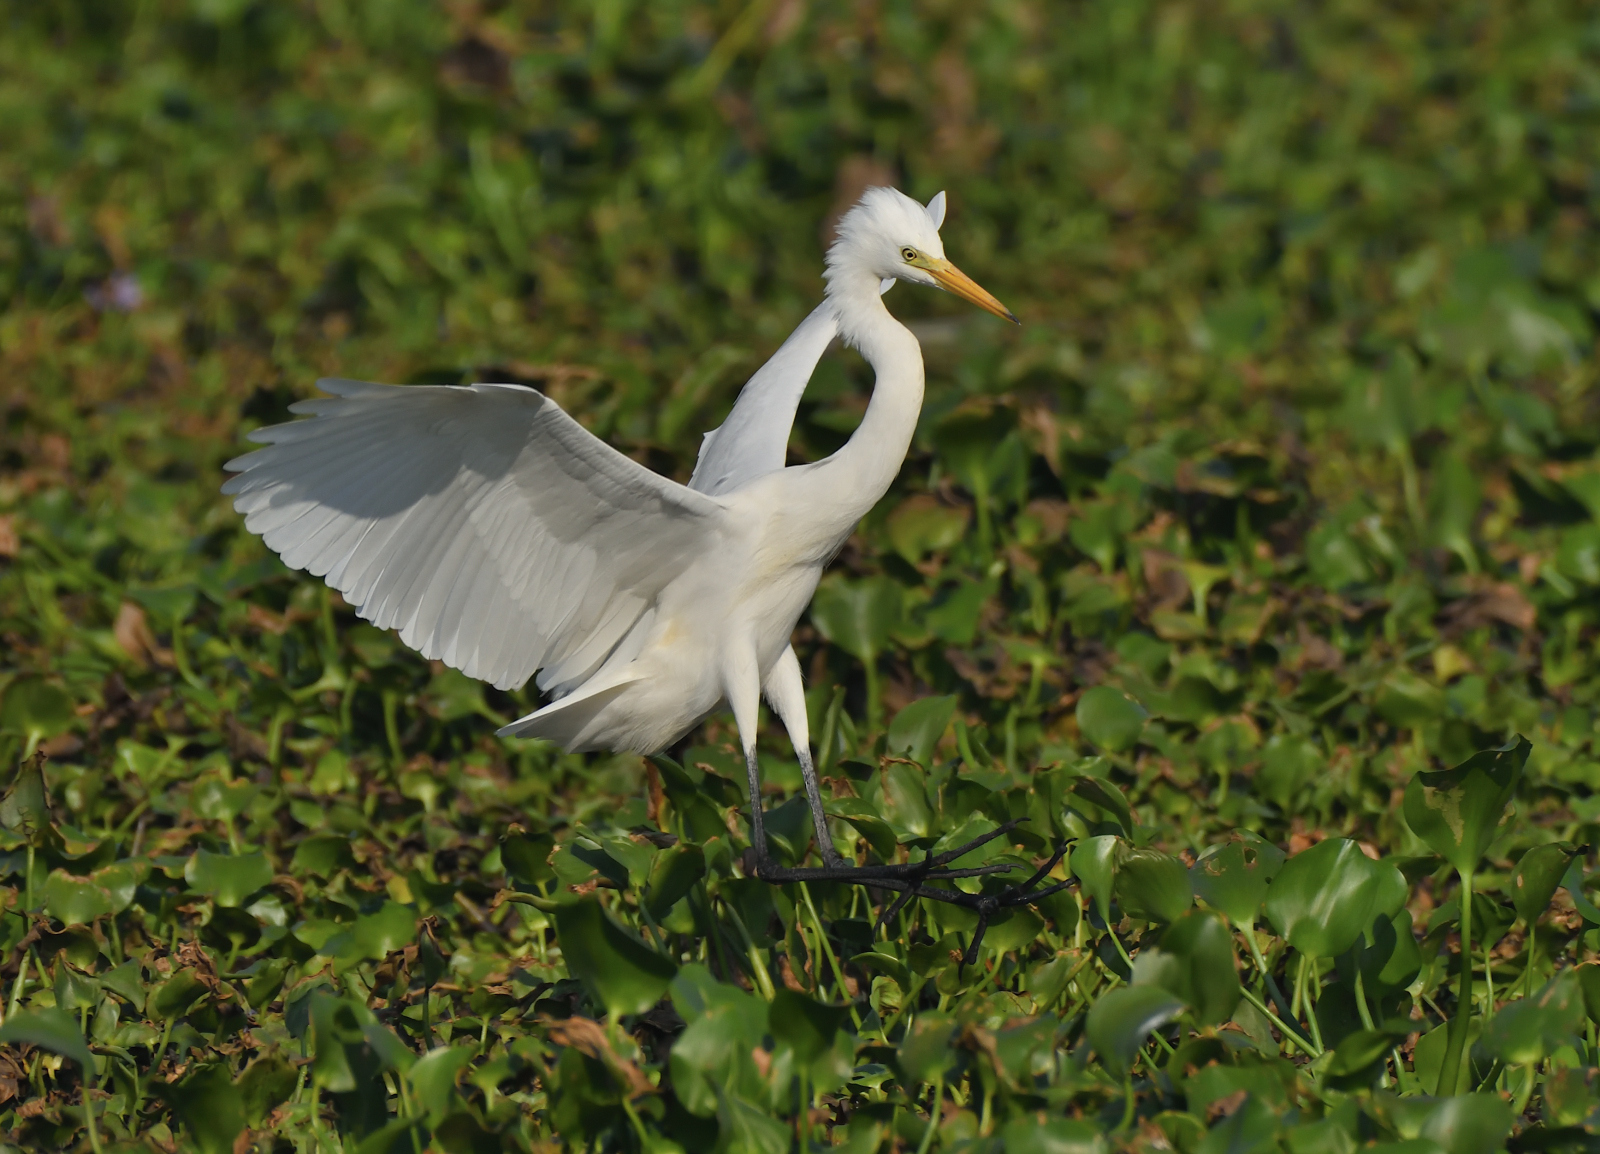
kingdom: Animalia
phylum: Chordata
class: Aves
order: Pelecaniformes
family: Ardeidae
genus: Egretta
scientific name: Egretta intermedia
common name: Intermediate egret
